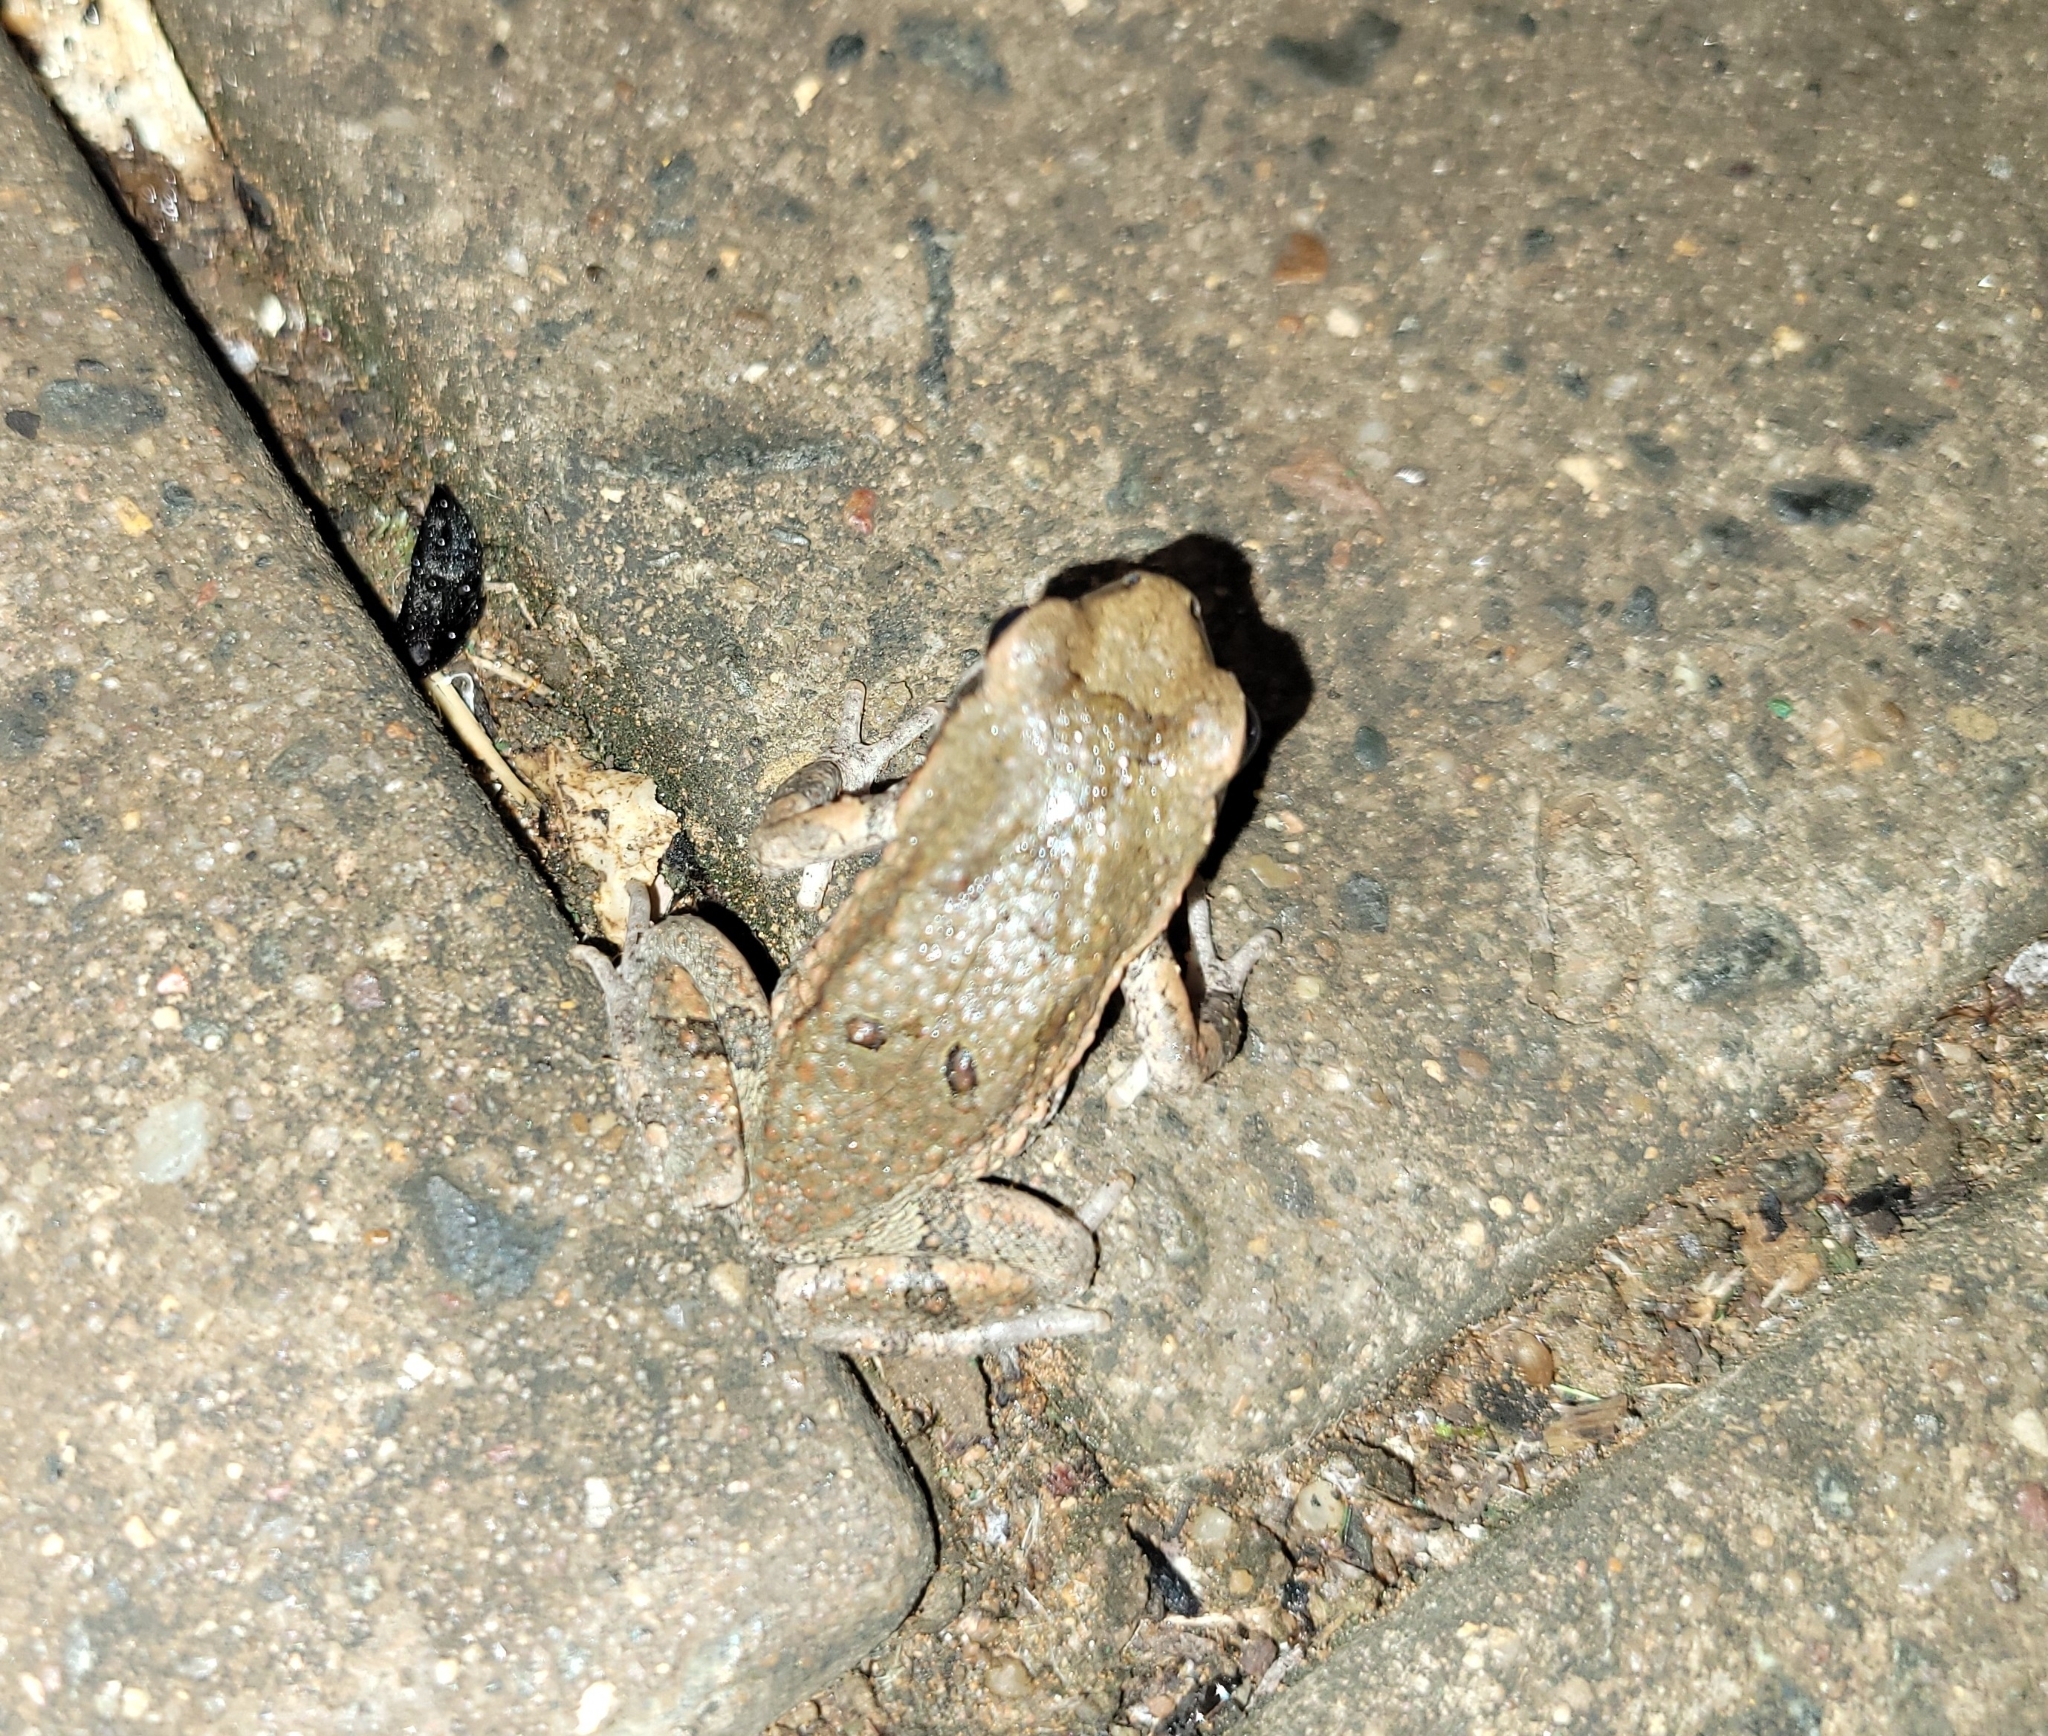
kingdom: Animalia
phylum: Chordata
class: Amphibia
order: Anura
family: Bufonidae
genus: Schismaderma
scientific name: Schismaderma carens
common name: African split-skin toad
